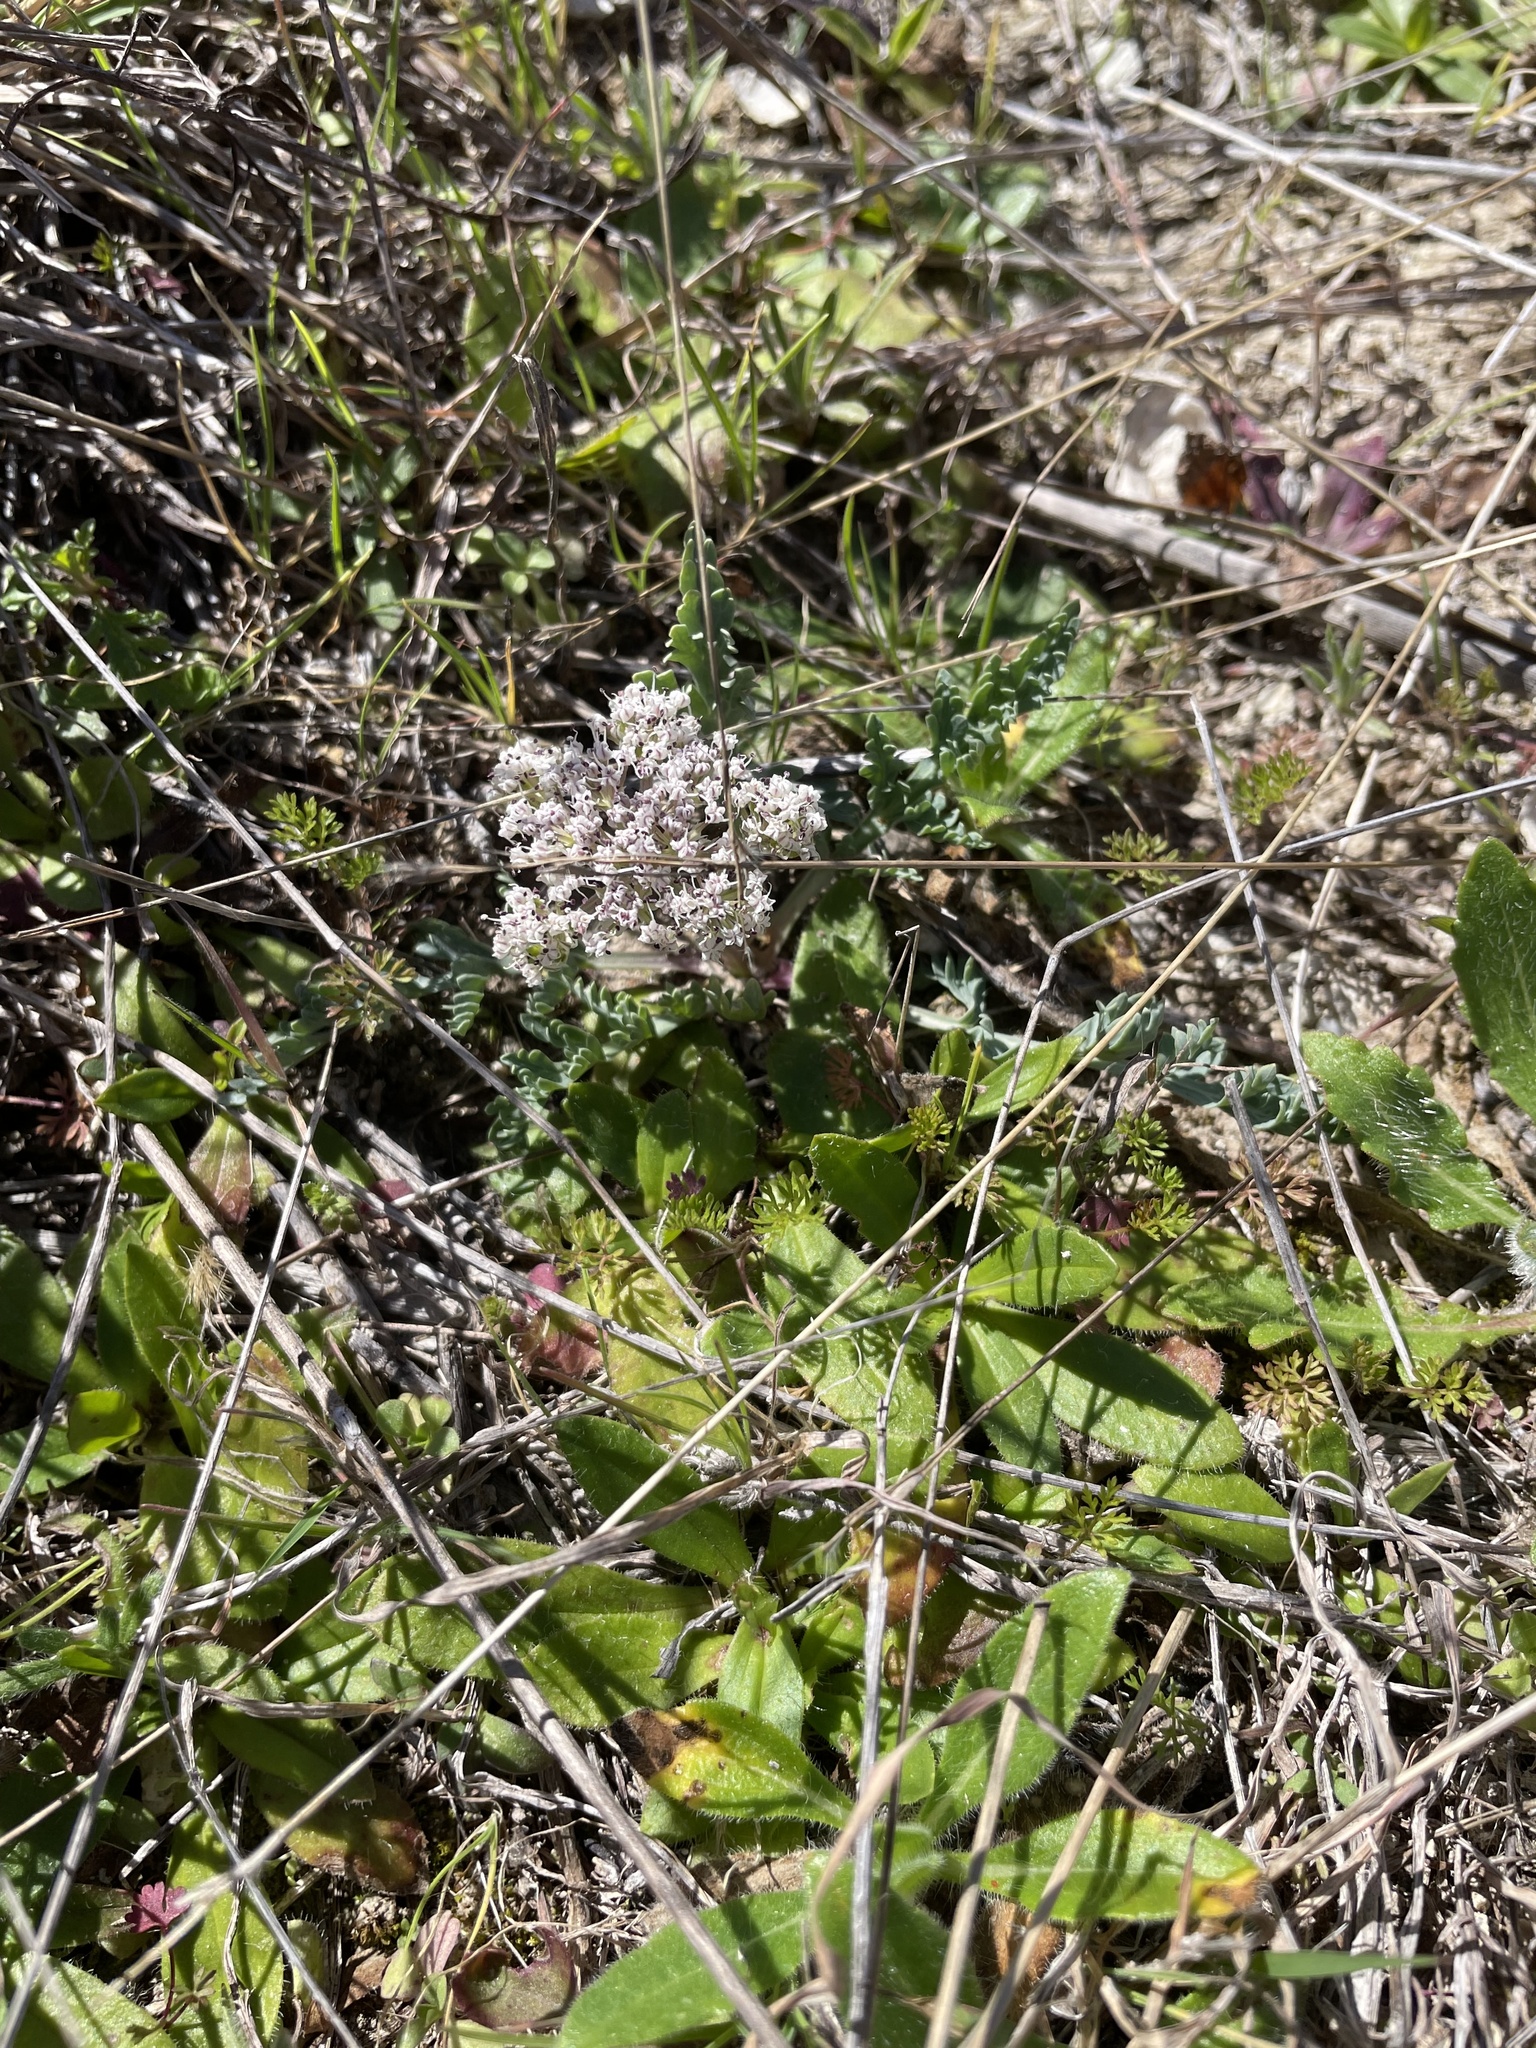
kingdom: Plantae
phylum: Tracheophyta
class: Magnoliopsida
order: Apiales
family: Apiaceae
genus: Vesper
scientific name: Vesper macrorhizus
